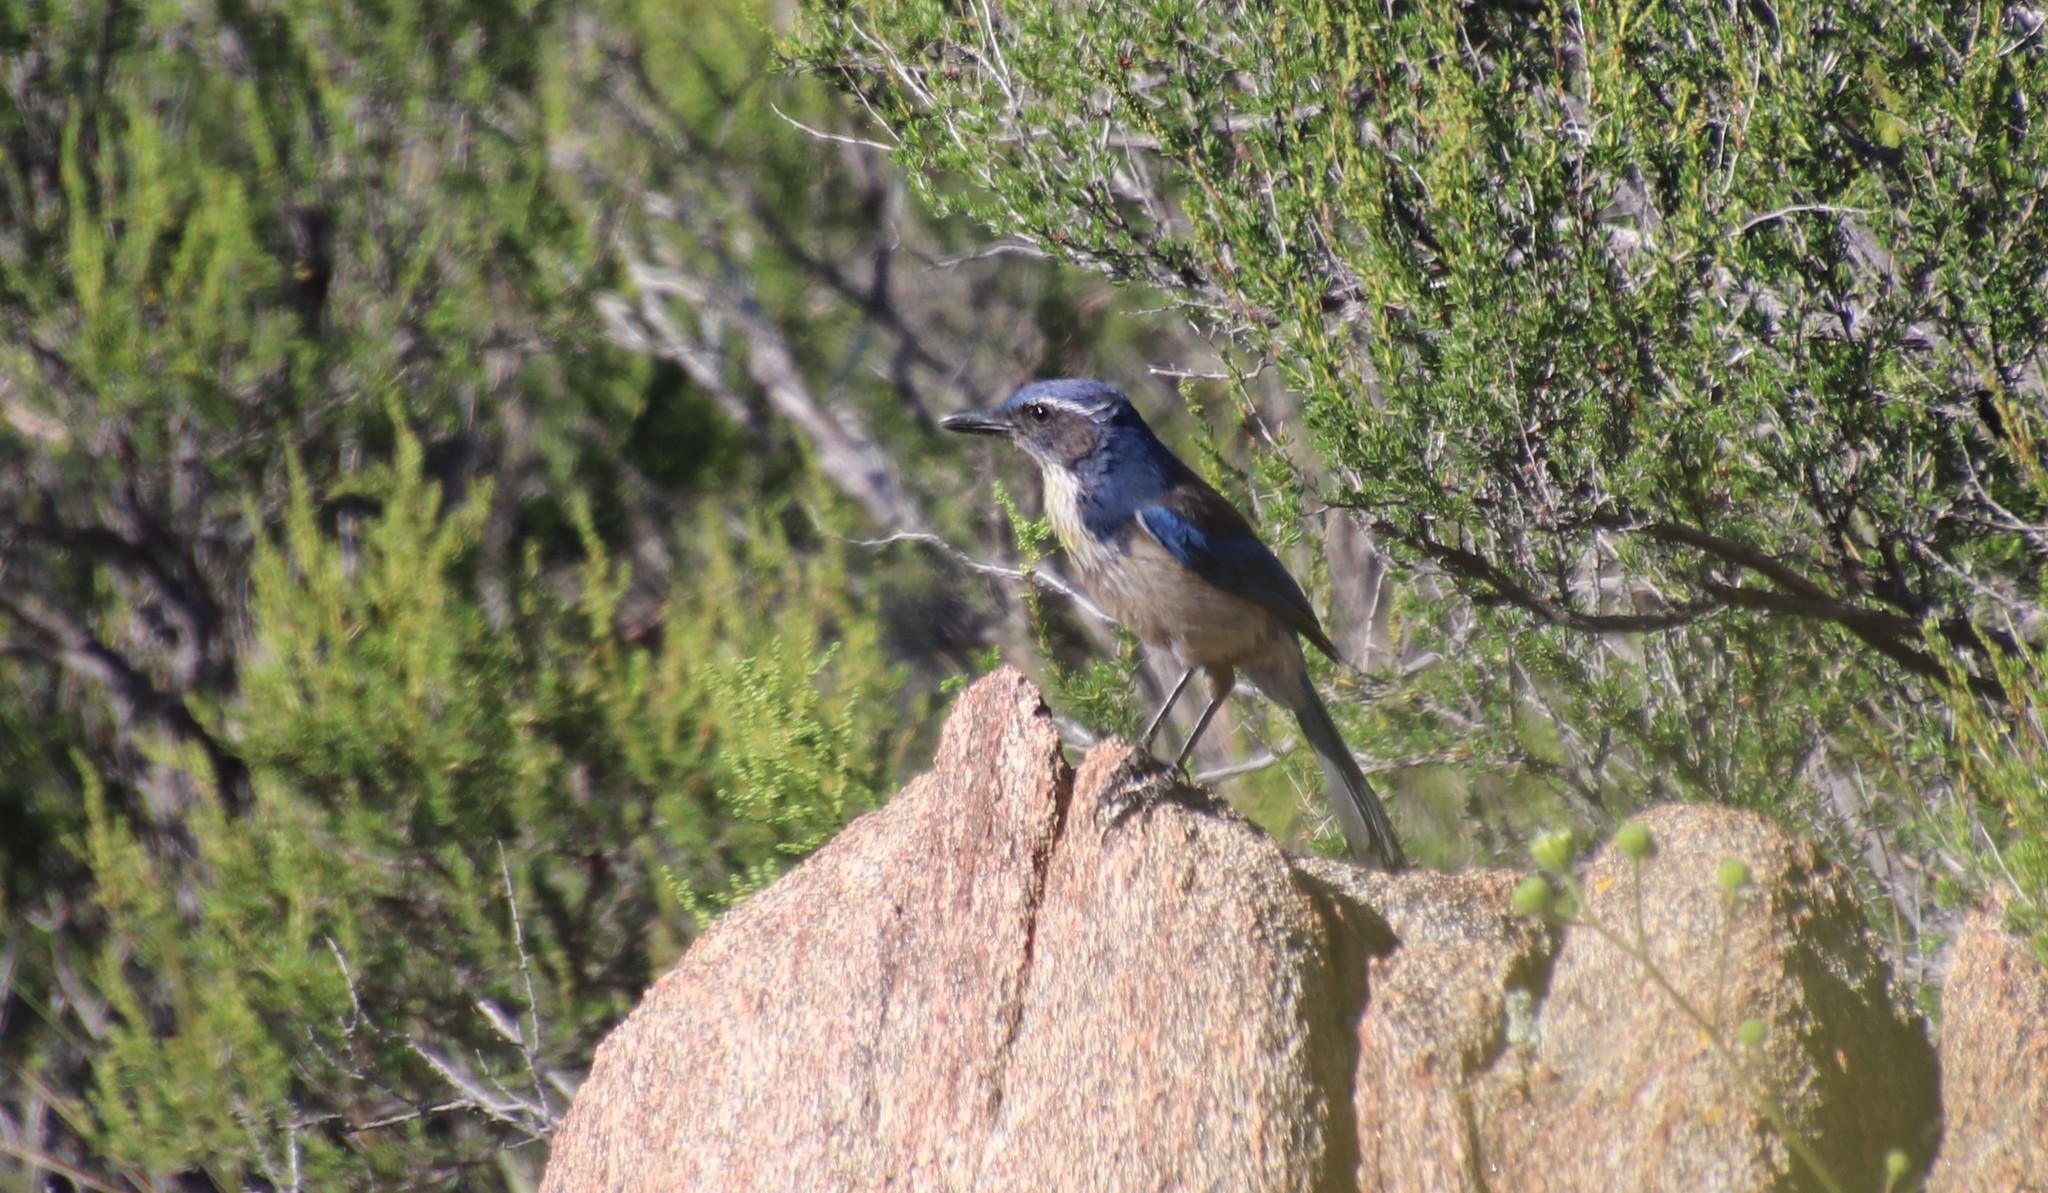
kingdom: Animalia
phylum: Chordata
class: Aves
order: Passeriformes
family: Corvidae
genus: Aphelocoma
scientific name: Aphelocoma californica
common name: California scrub-jay
